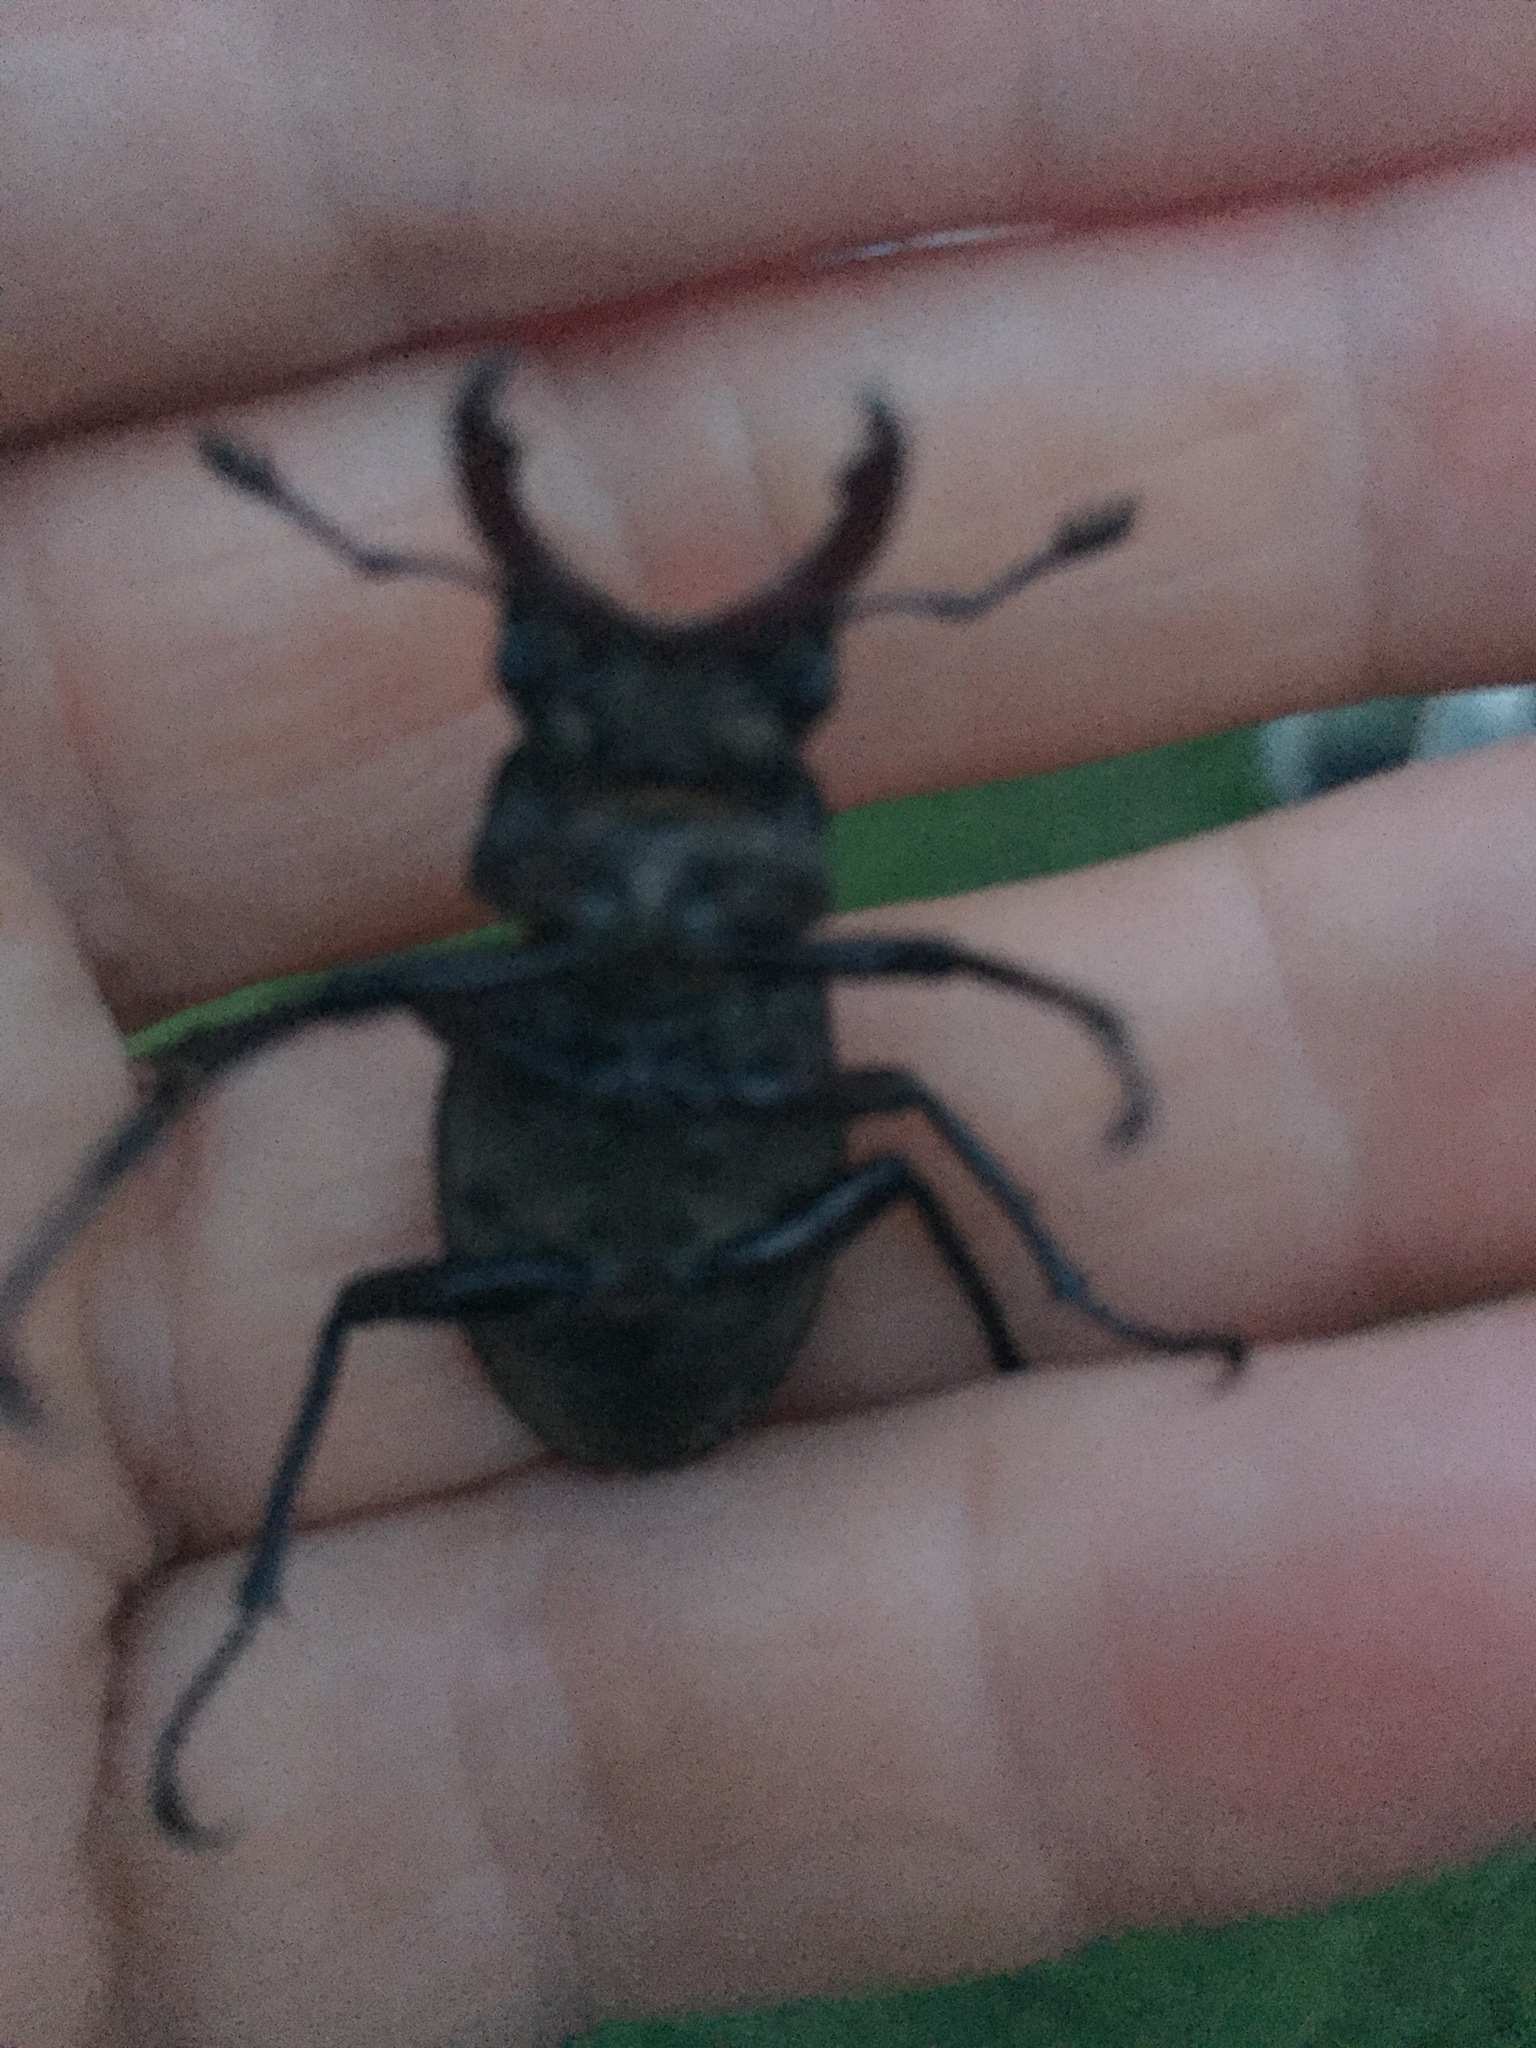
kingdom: Animalia
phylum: Arthropoda
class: Insecta
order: Coleoptera
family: Lucanidae
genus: Lucanus
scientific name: Lucanus cervus
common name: Stag beetle
